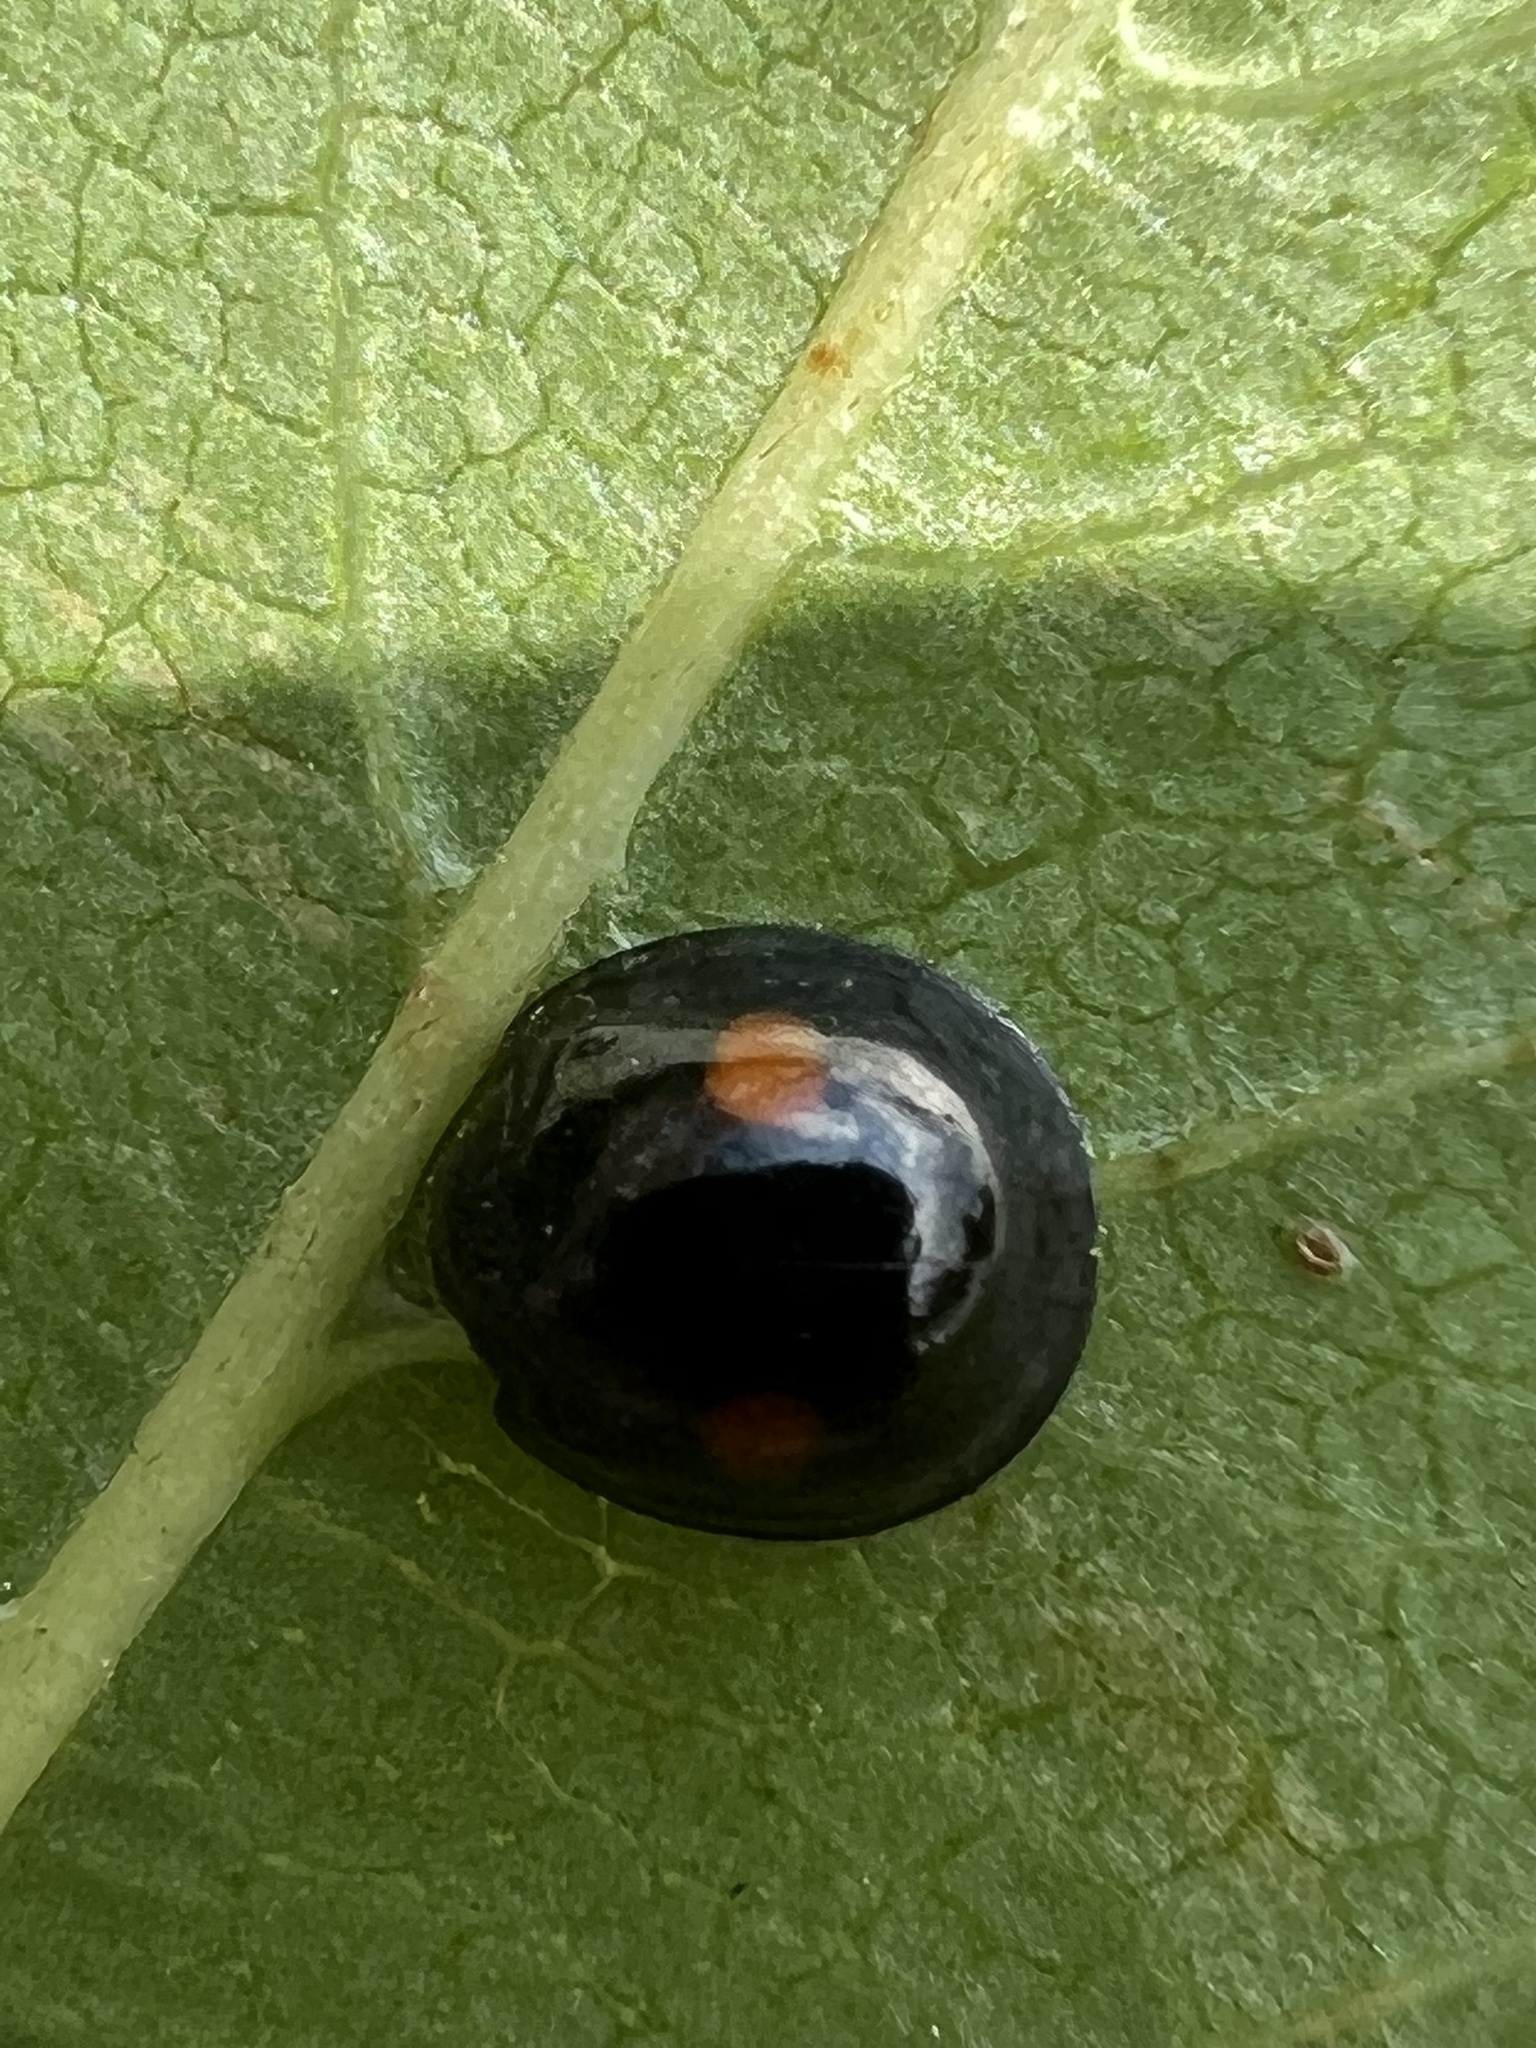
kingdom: Animalia
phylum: Arthropoda
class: Insecta
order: Coleoptera
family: Coccinellidae
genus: Chilocorus
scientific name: Chilocorus stigma
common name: Twicestabbed lady beetle
